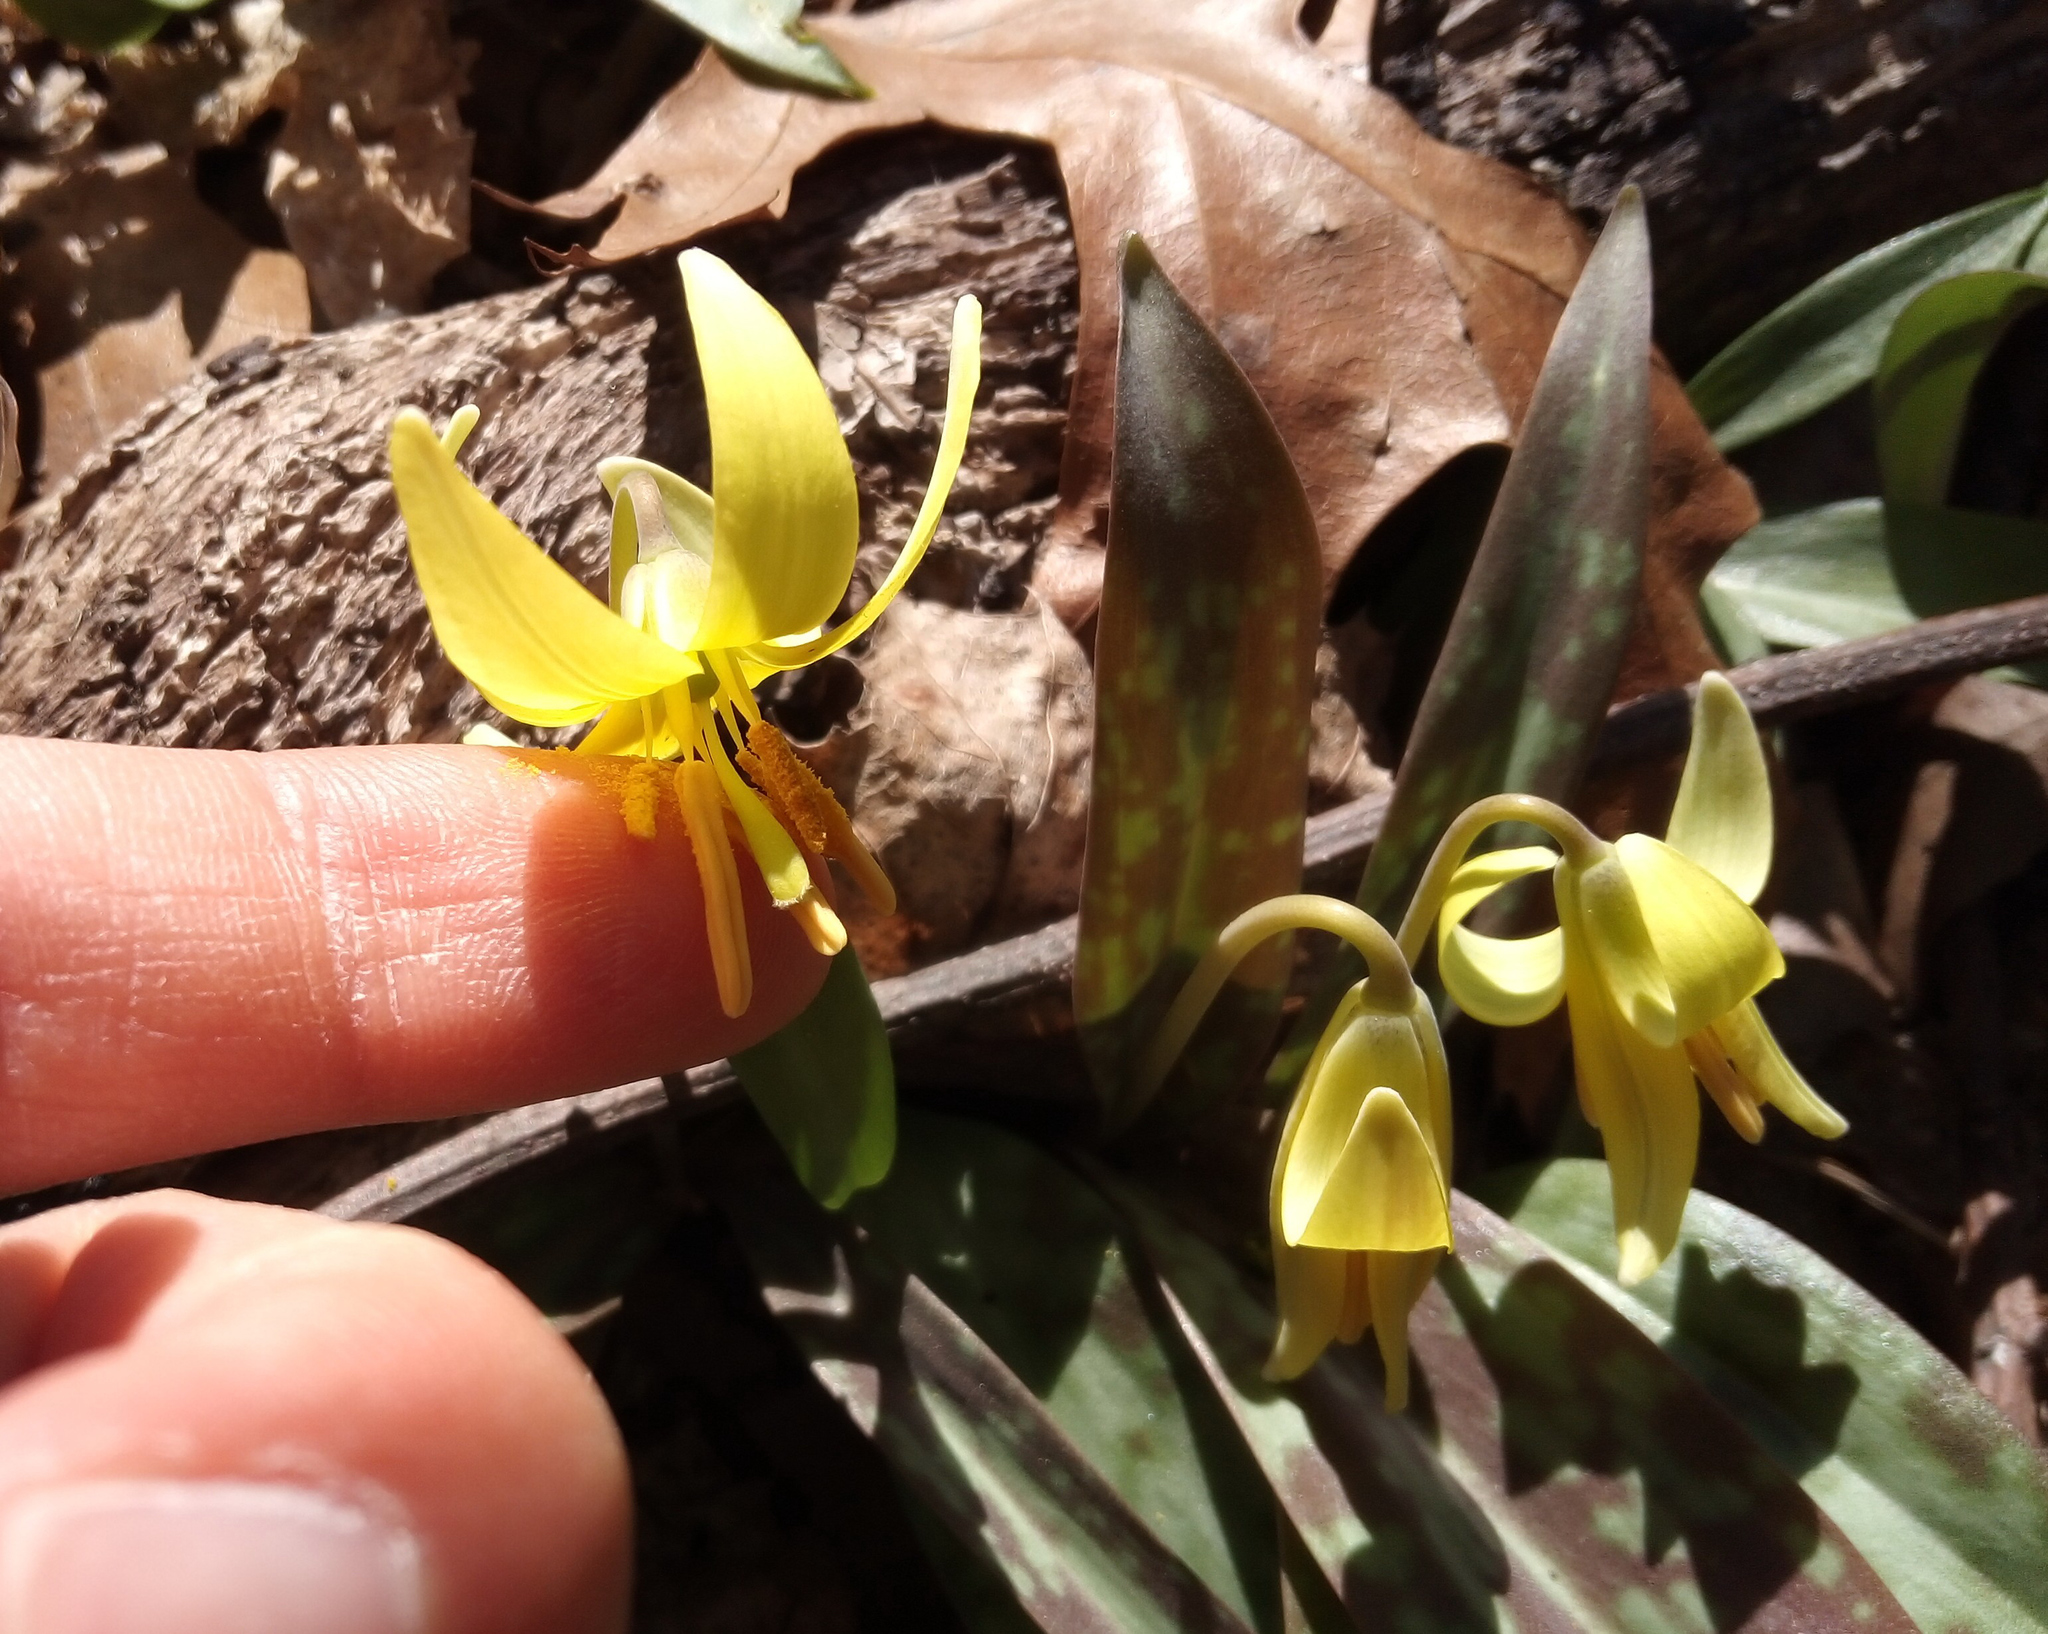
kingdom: Plantae
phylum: Tracheophyta
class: Liliopsida
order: Liliales
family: Liliaceae
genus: Erythronium
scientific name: Erythronium americanum
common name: Yellow adder's-tongue
